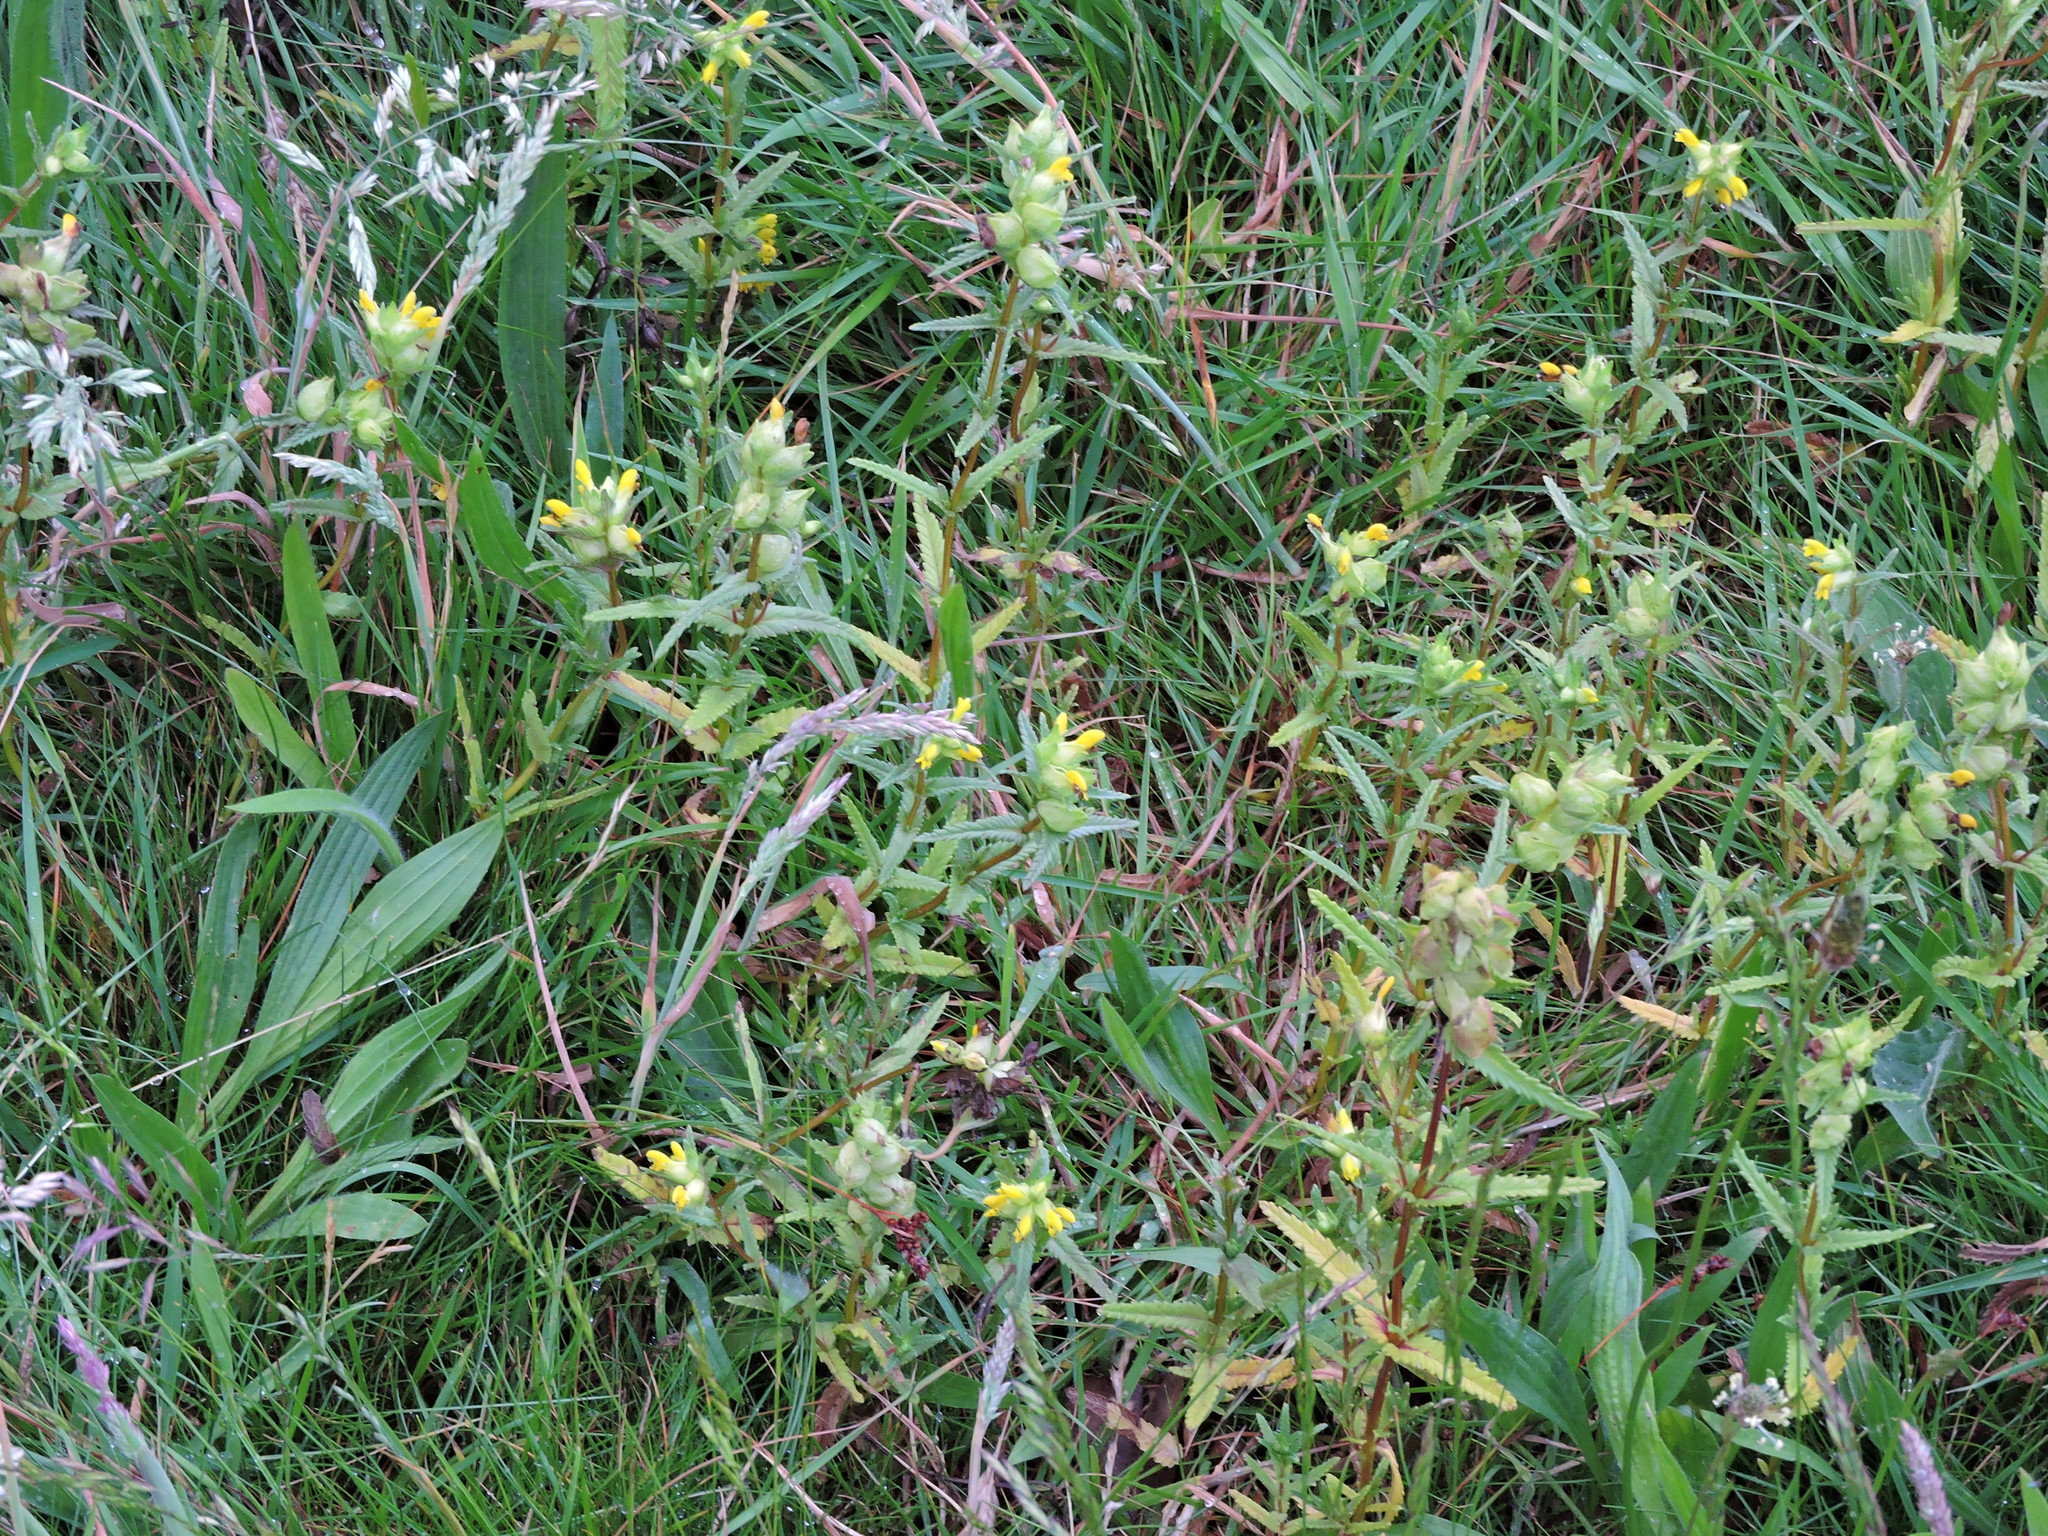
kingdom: Plantae
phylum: Tracheophyta
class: Magnoliopsida
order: Lamiales
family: Orobanchaceae
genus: Rhinanthus
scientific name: Rhinanthus minor
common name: Yellow-rattle
